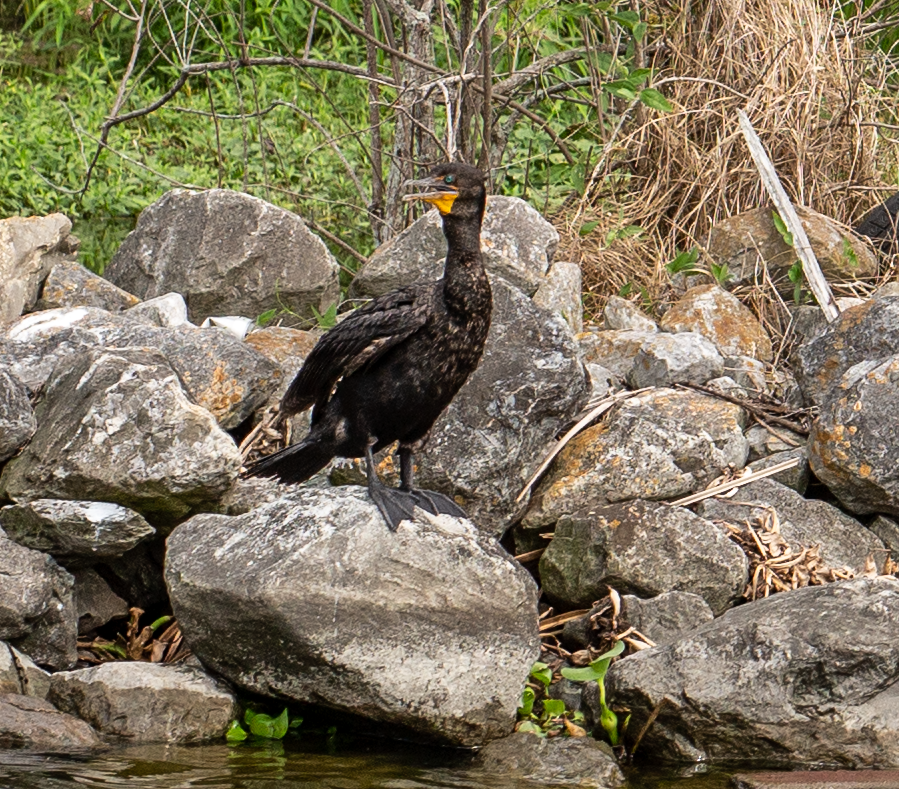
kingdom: Animalia
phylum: Chordata
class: Aves
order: Suliformes
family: Phalacrocoracidae
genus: Phalacrocorax
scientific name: Phalacrocorax auritus
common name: Double-crested cormorant
